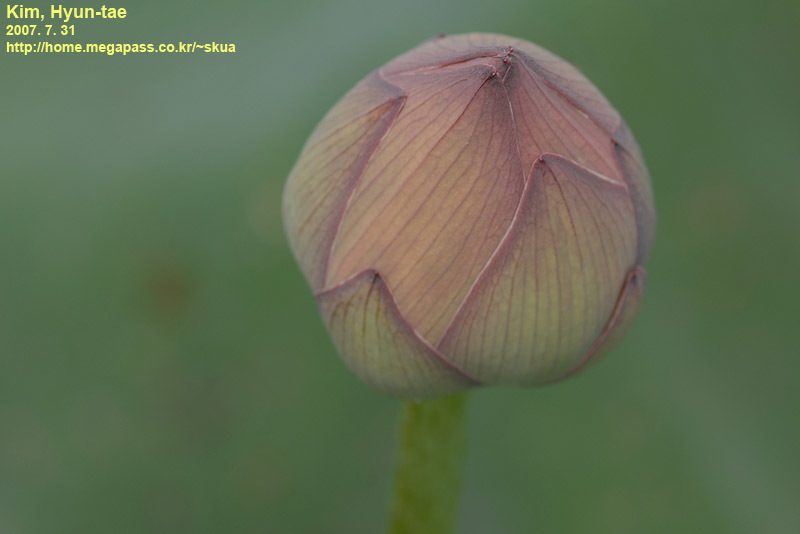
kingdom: Plantae
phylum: Tracheophyta
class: Magnoliopsida
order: Proteales
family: Nelumbonaceae
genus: Nelumbo
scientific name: Nelumbo nucifera
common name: Sacred lotus
